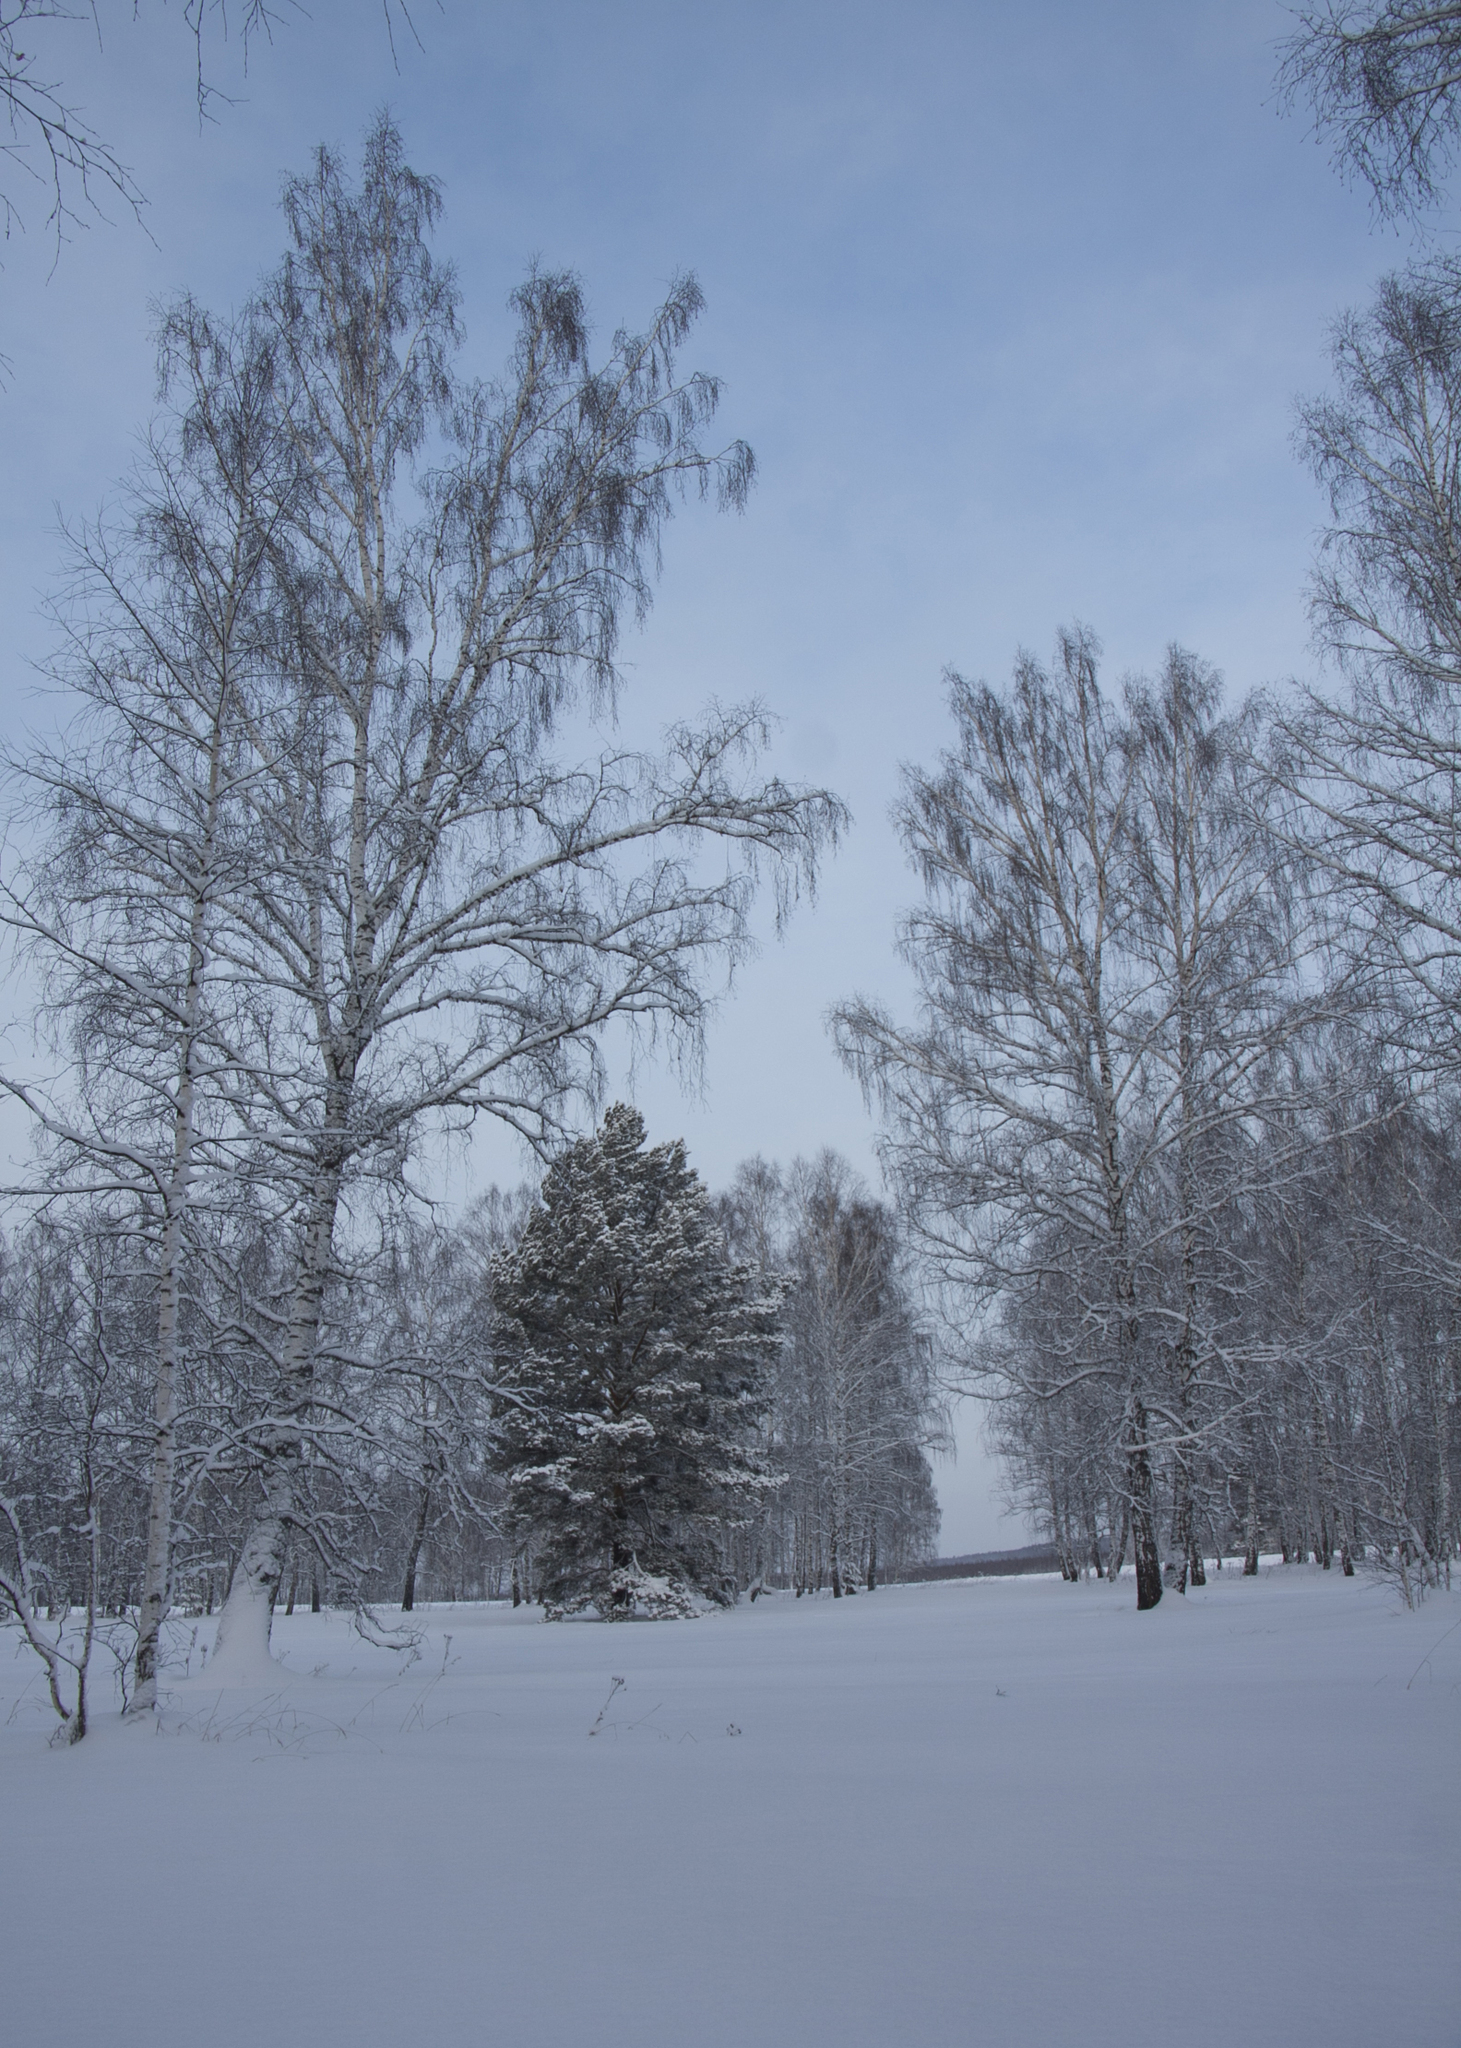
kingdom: Plantae
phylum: Tracheophyta
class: Magnoliopsida
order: Fagales
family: Betulaceae
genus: Betula
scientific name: Betula pendula
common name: Silver birch
